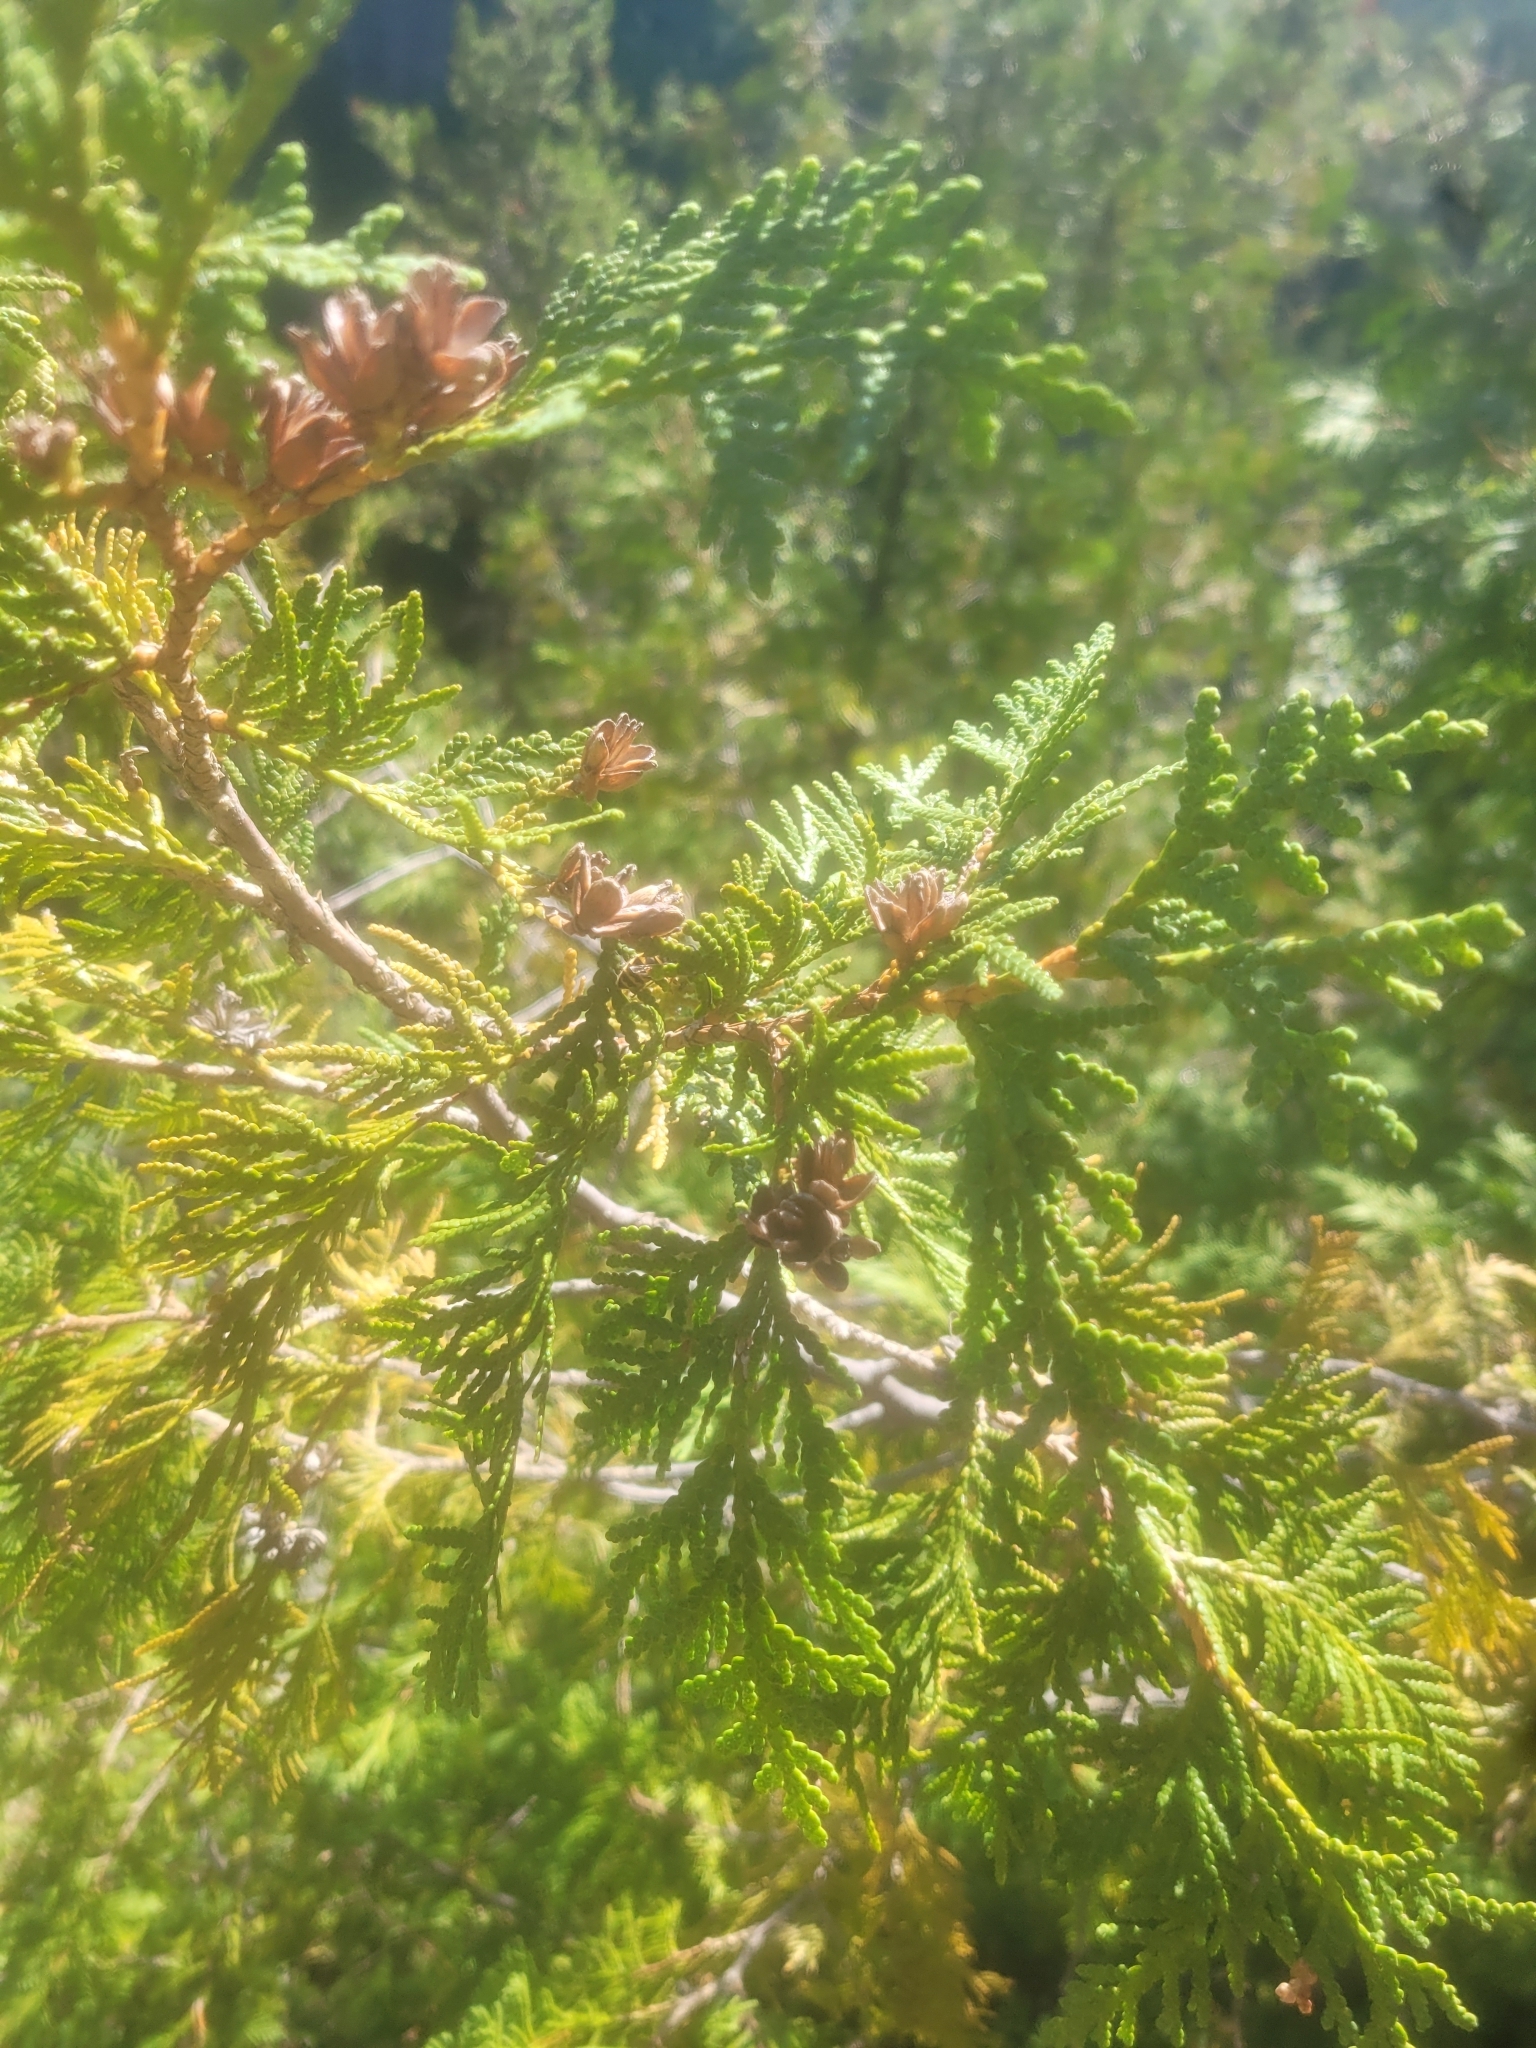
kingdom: Plantae
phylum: Tracheophyta
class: Pinopsida
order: Pinales
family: Cupressaceae
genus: Thuja
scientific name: Thuja occidentalis
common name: Northern white-cedar
